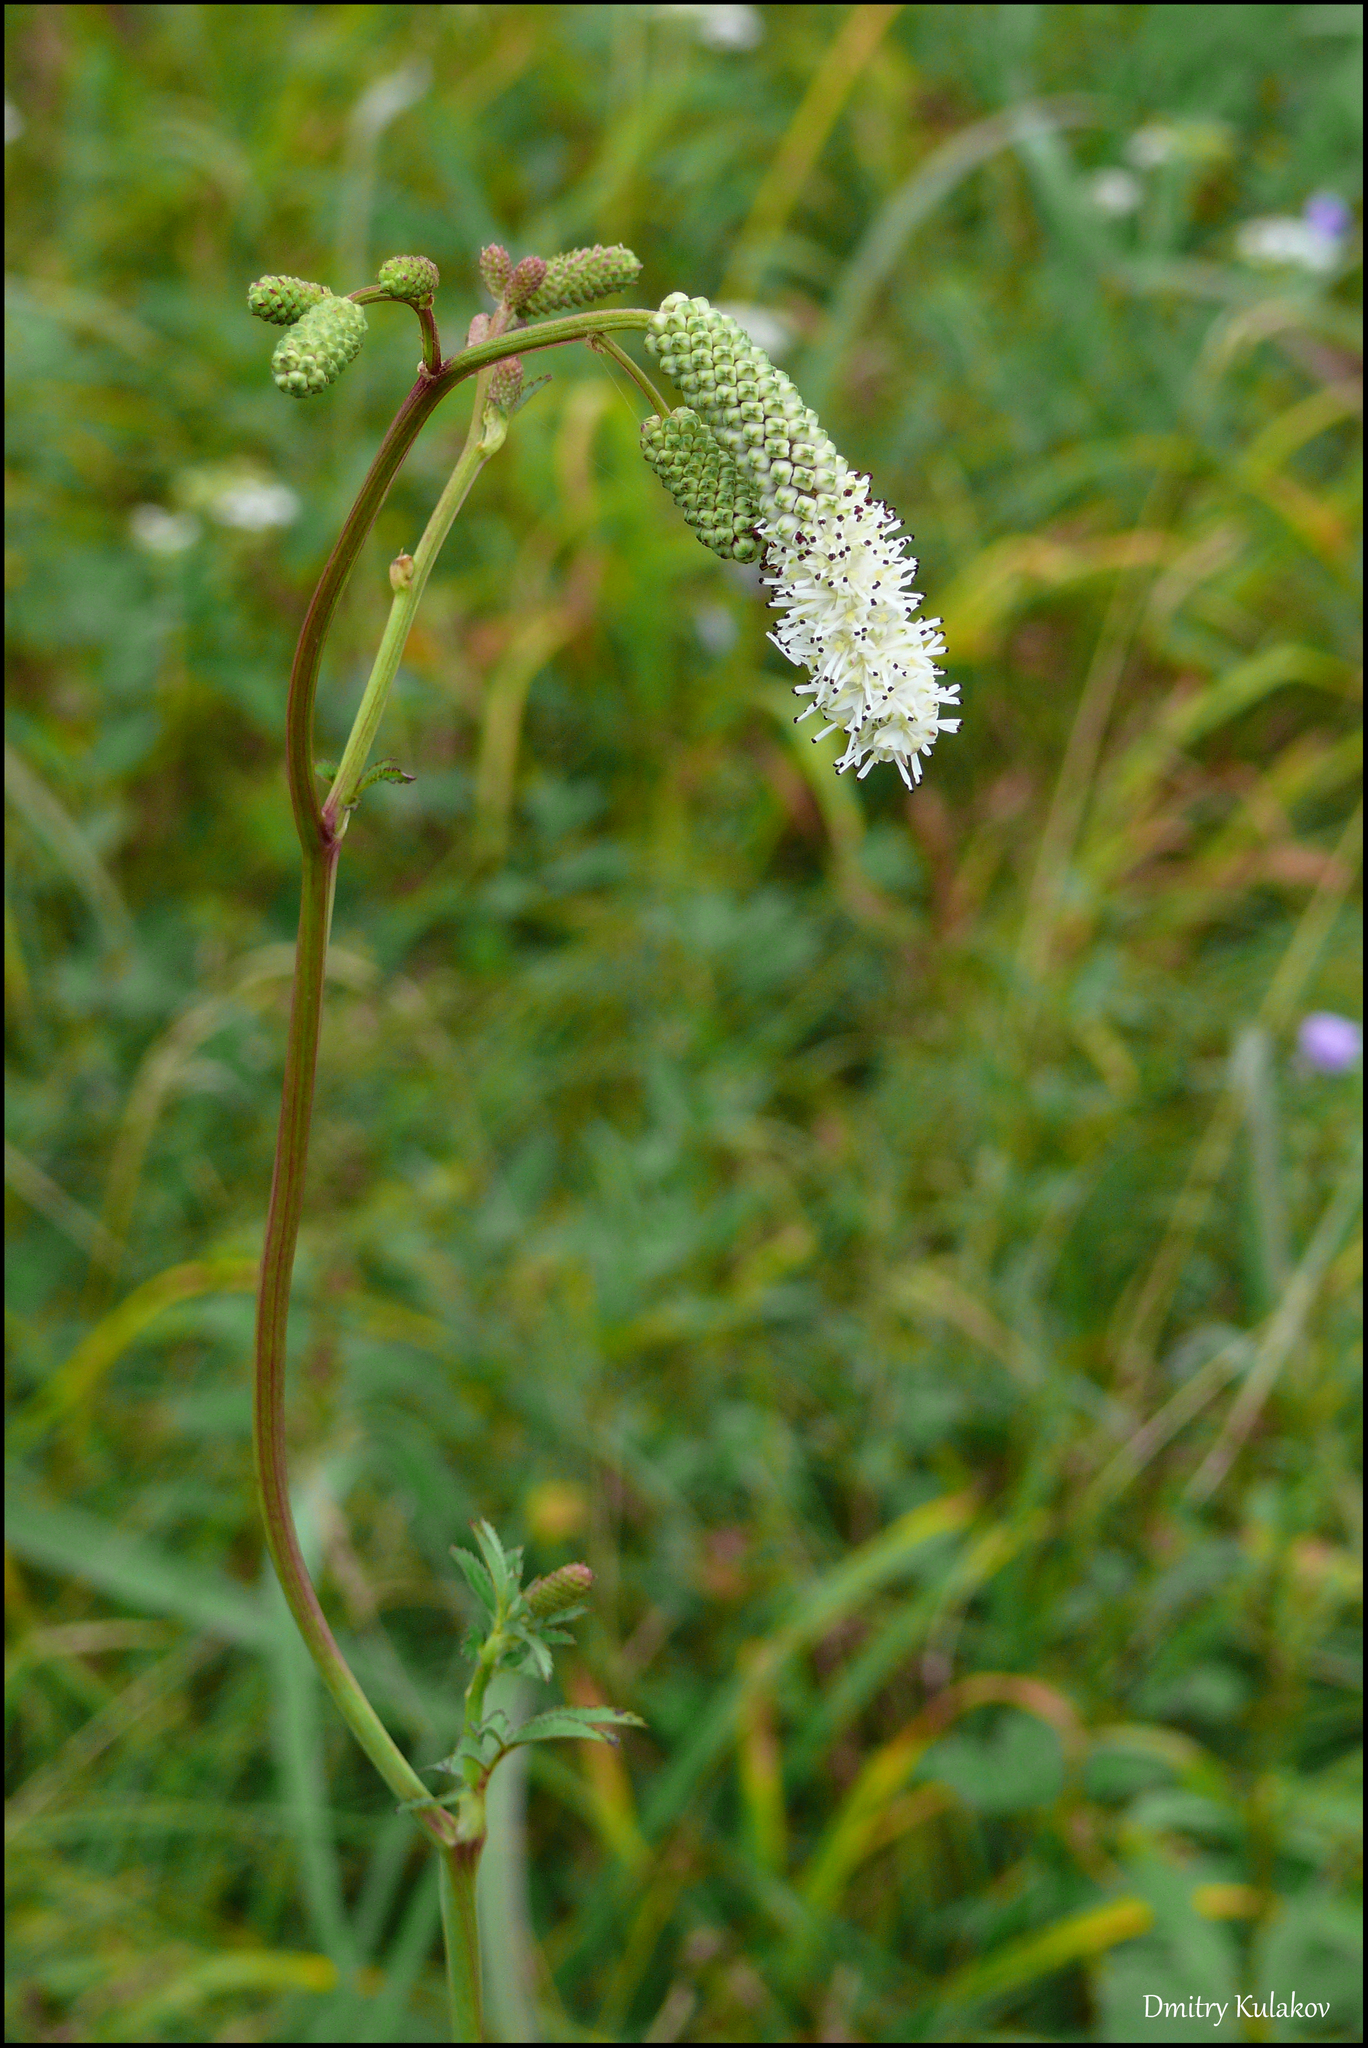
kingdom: Plantae
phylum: Tracheophyta
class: Magnoliopsida
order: Rosales
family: Rosaceae
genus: Poterium
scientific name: Poterium tenuifolium
